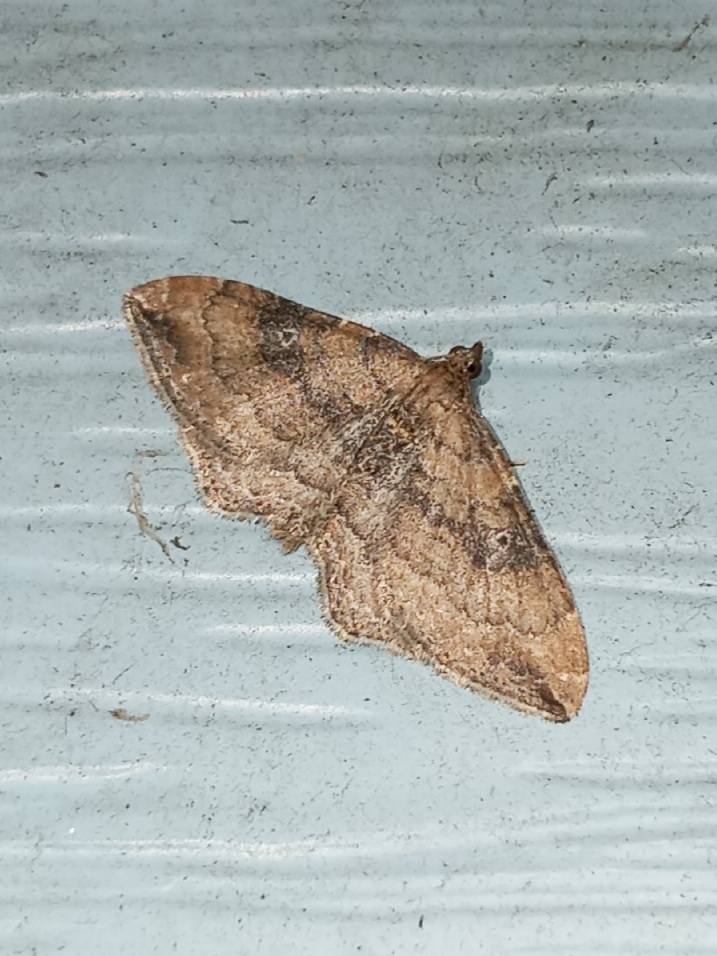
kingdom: Animalia
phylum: Arthropoda
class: Insecta
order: Lepidoptera
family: Geometridae
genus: Orthonama
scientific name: Orthonama obstipata
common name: The gem
